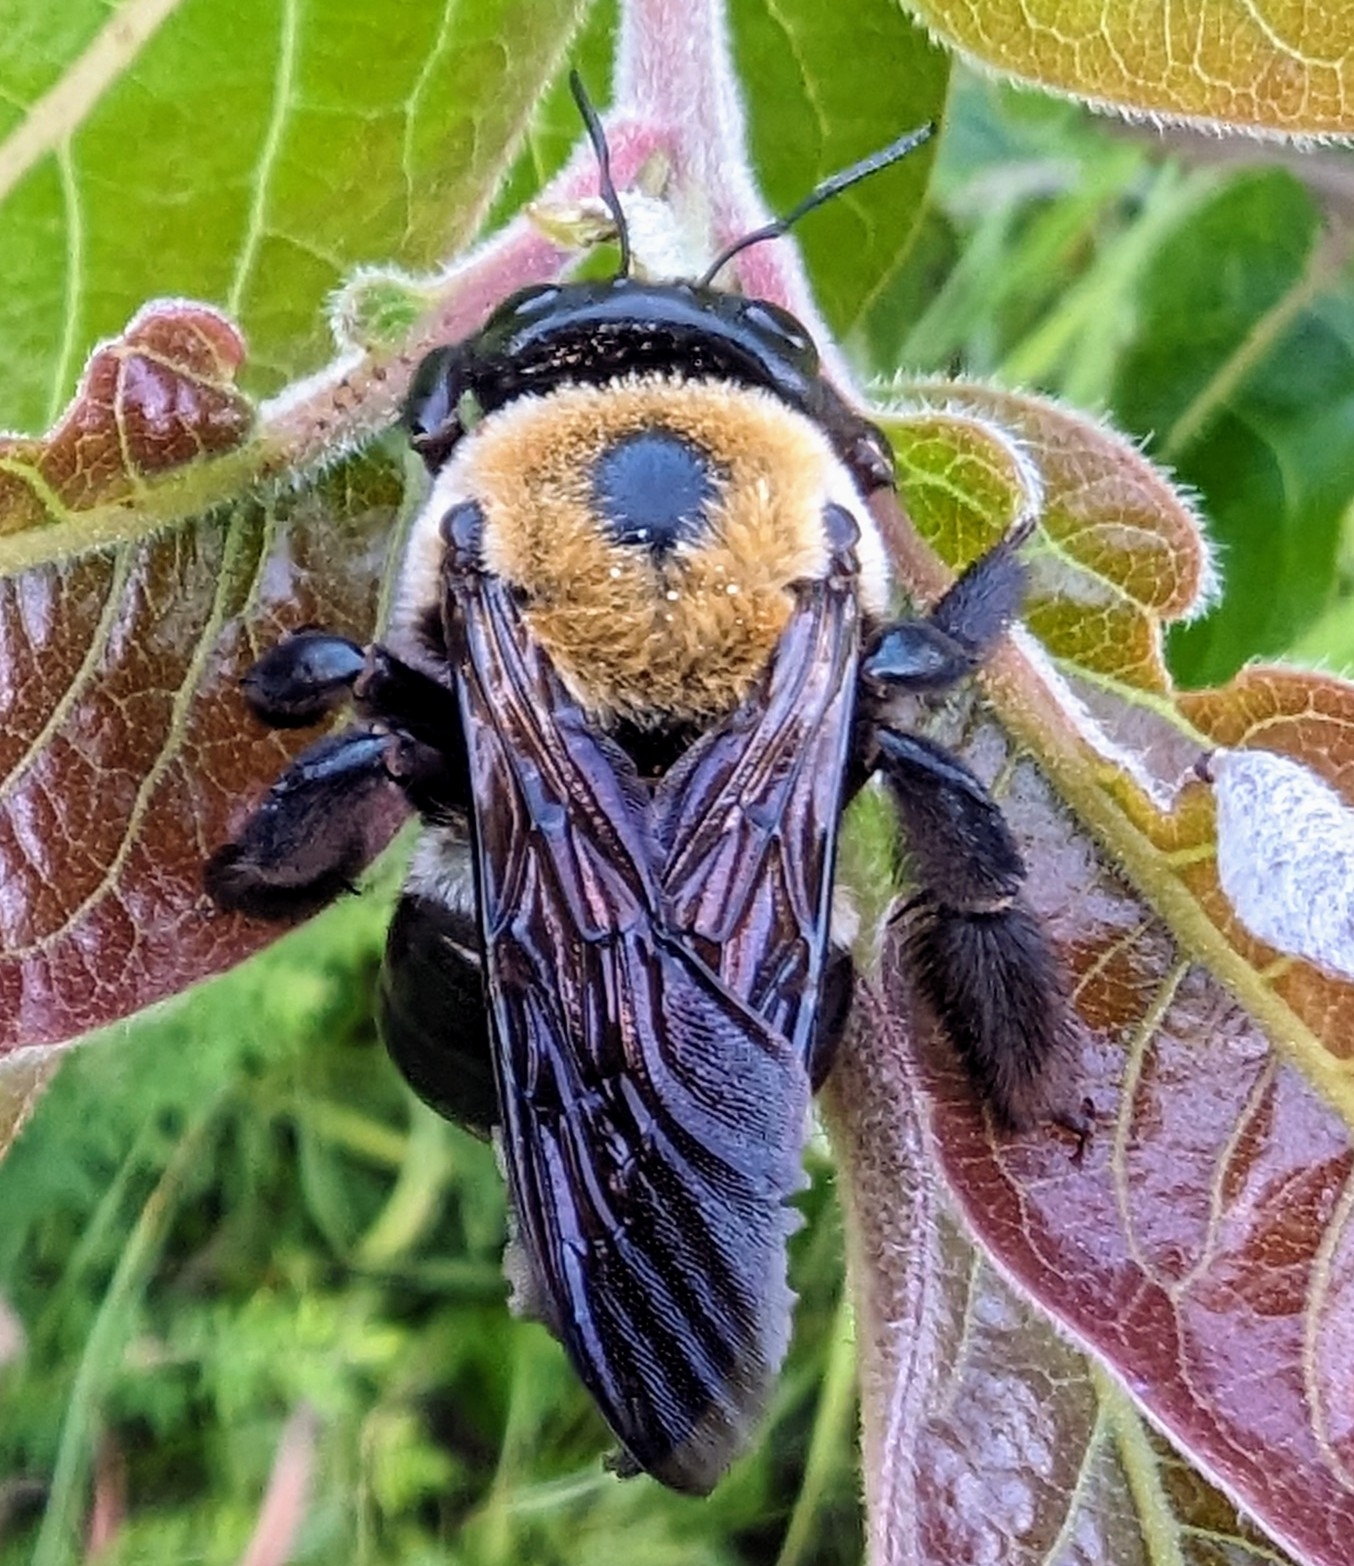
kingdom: Animalia
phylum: Arthropoda
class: Insecta
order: Hymenoptera
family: Apidae
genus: Xylocopa
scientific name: Xylocopa virginica
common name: Carpenter bee
